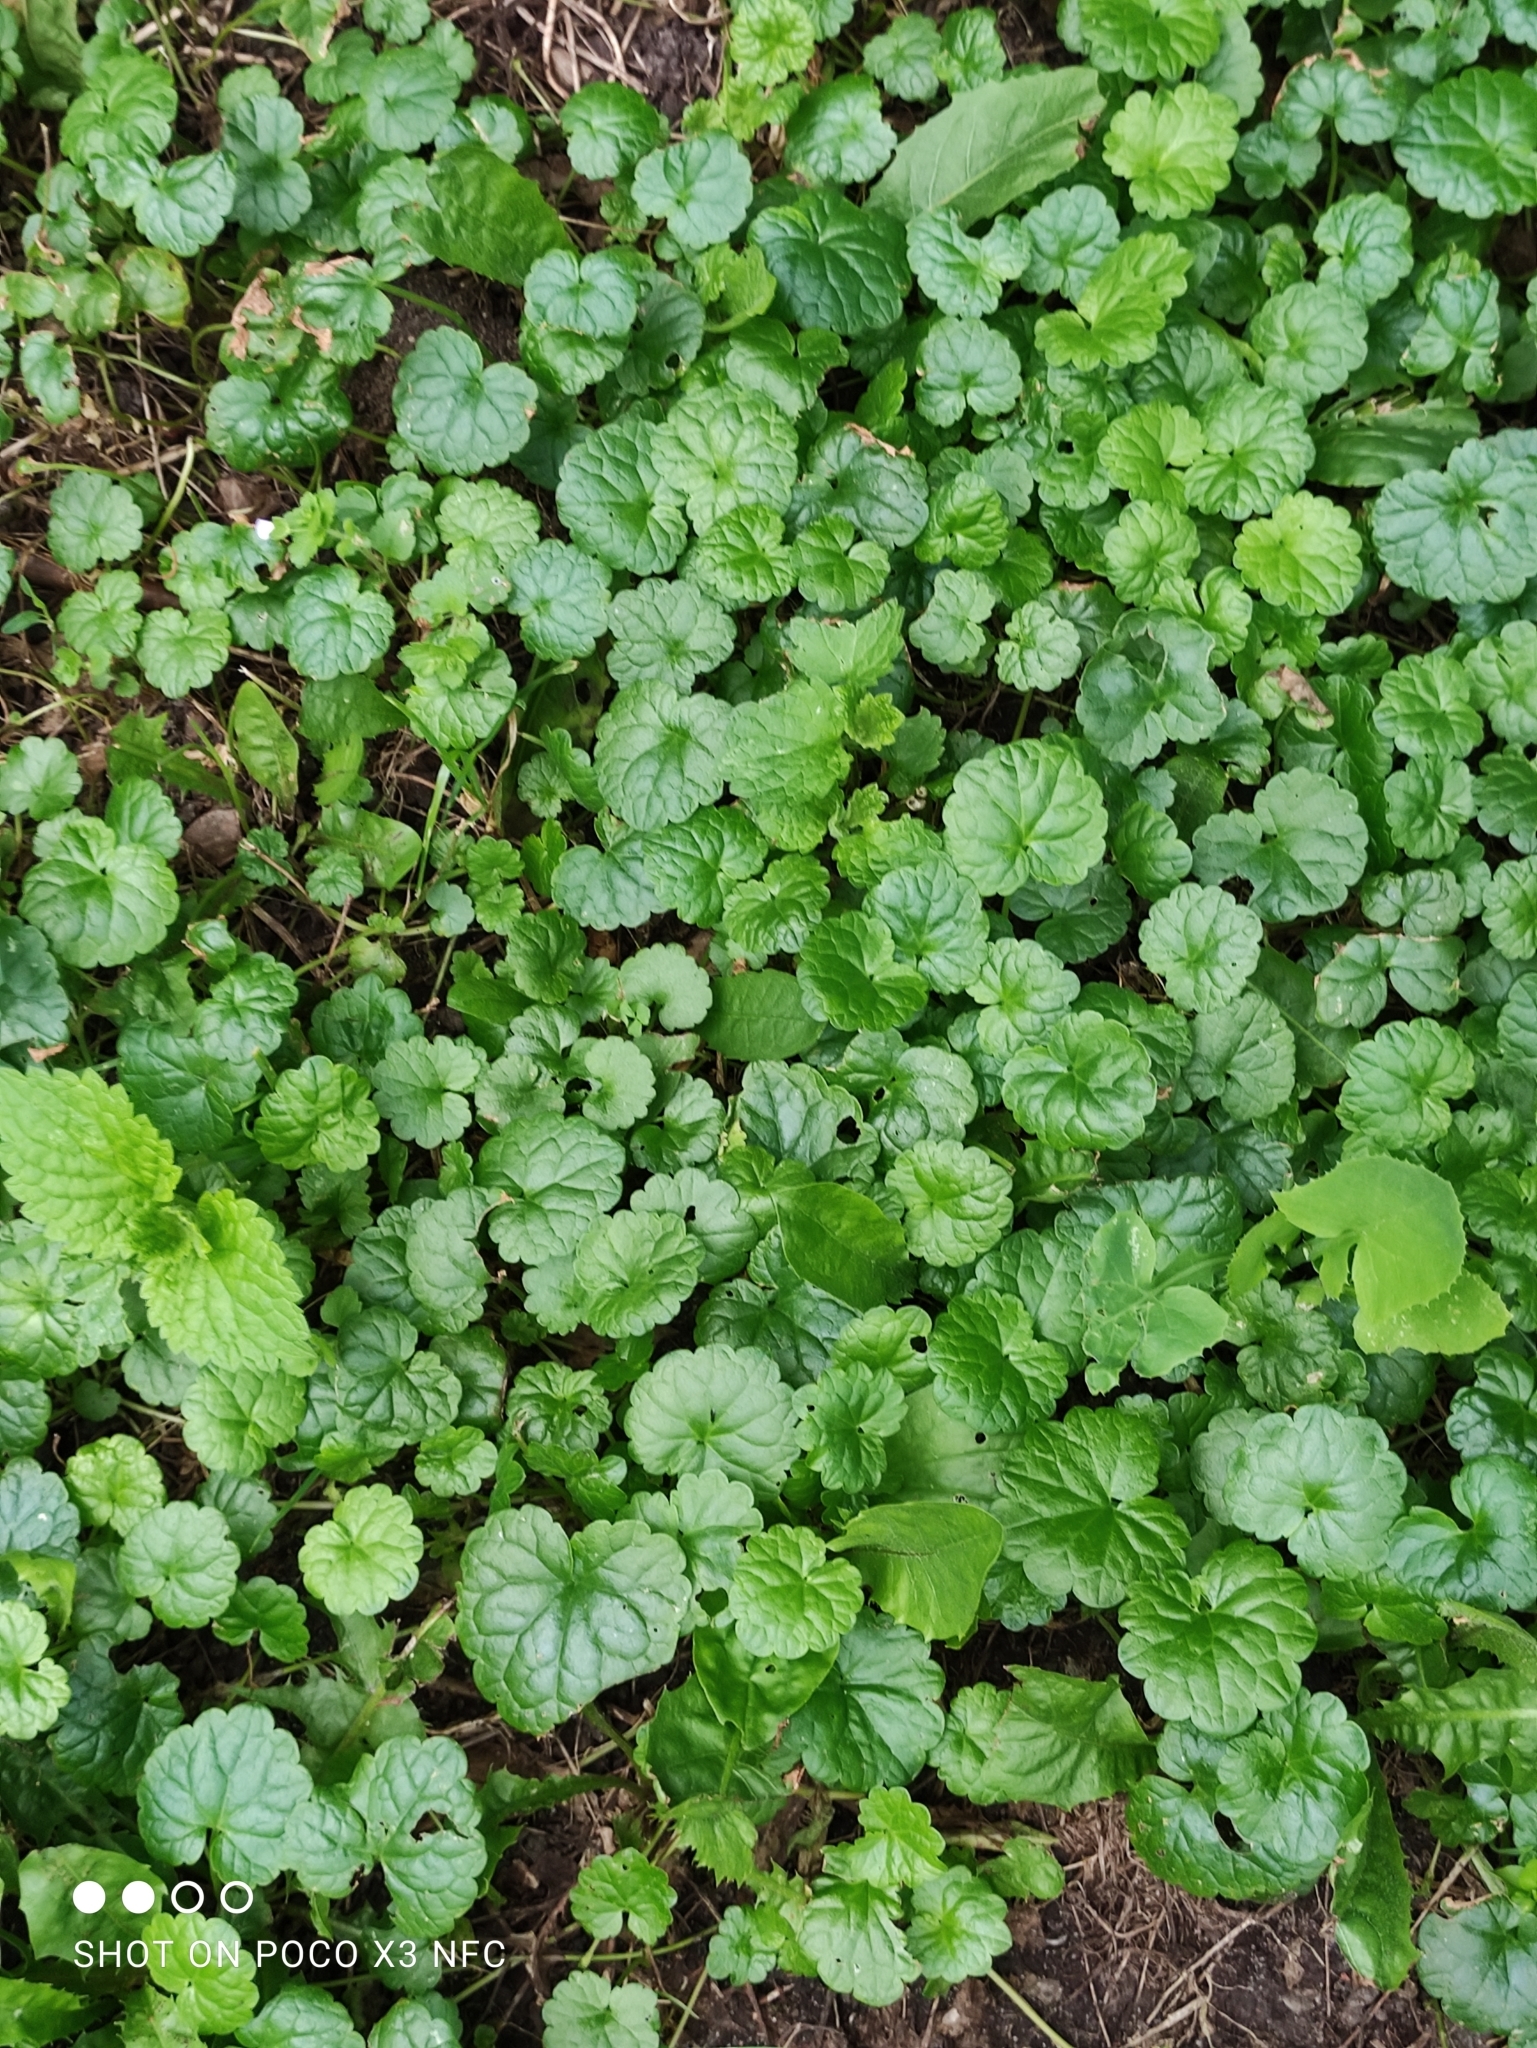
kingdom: Plantae
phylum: Tracheophyta
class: Magnoliopsida
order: Lamiales
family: Lamiaceae
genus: Glechoma
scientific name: Glechoma hederacea
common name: Ground ivy
